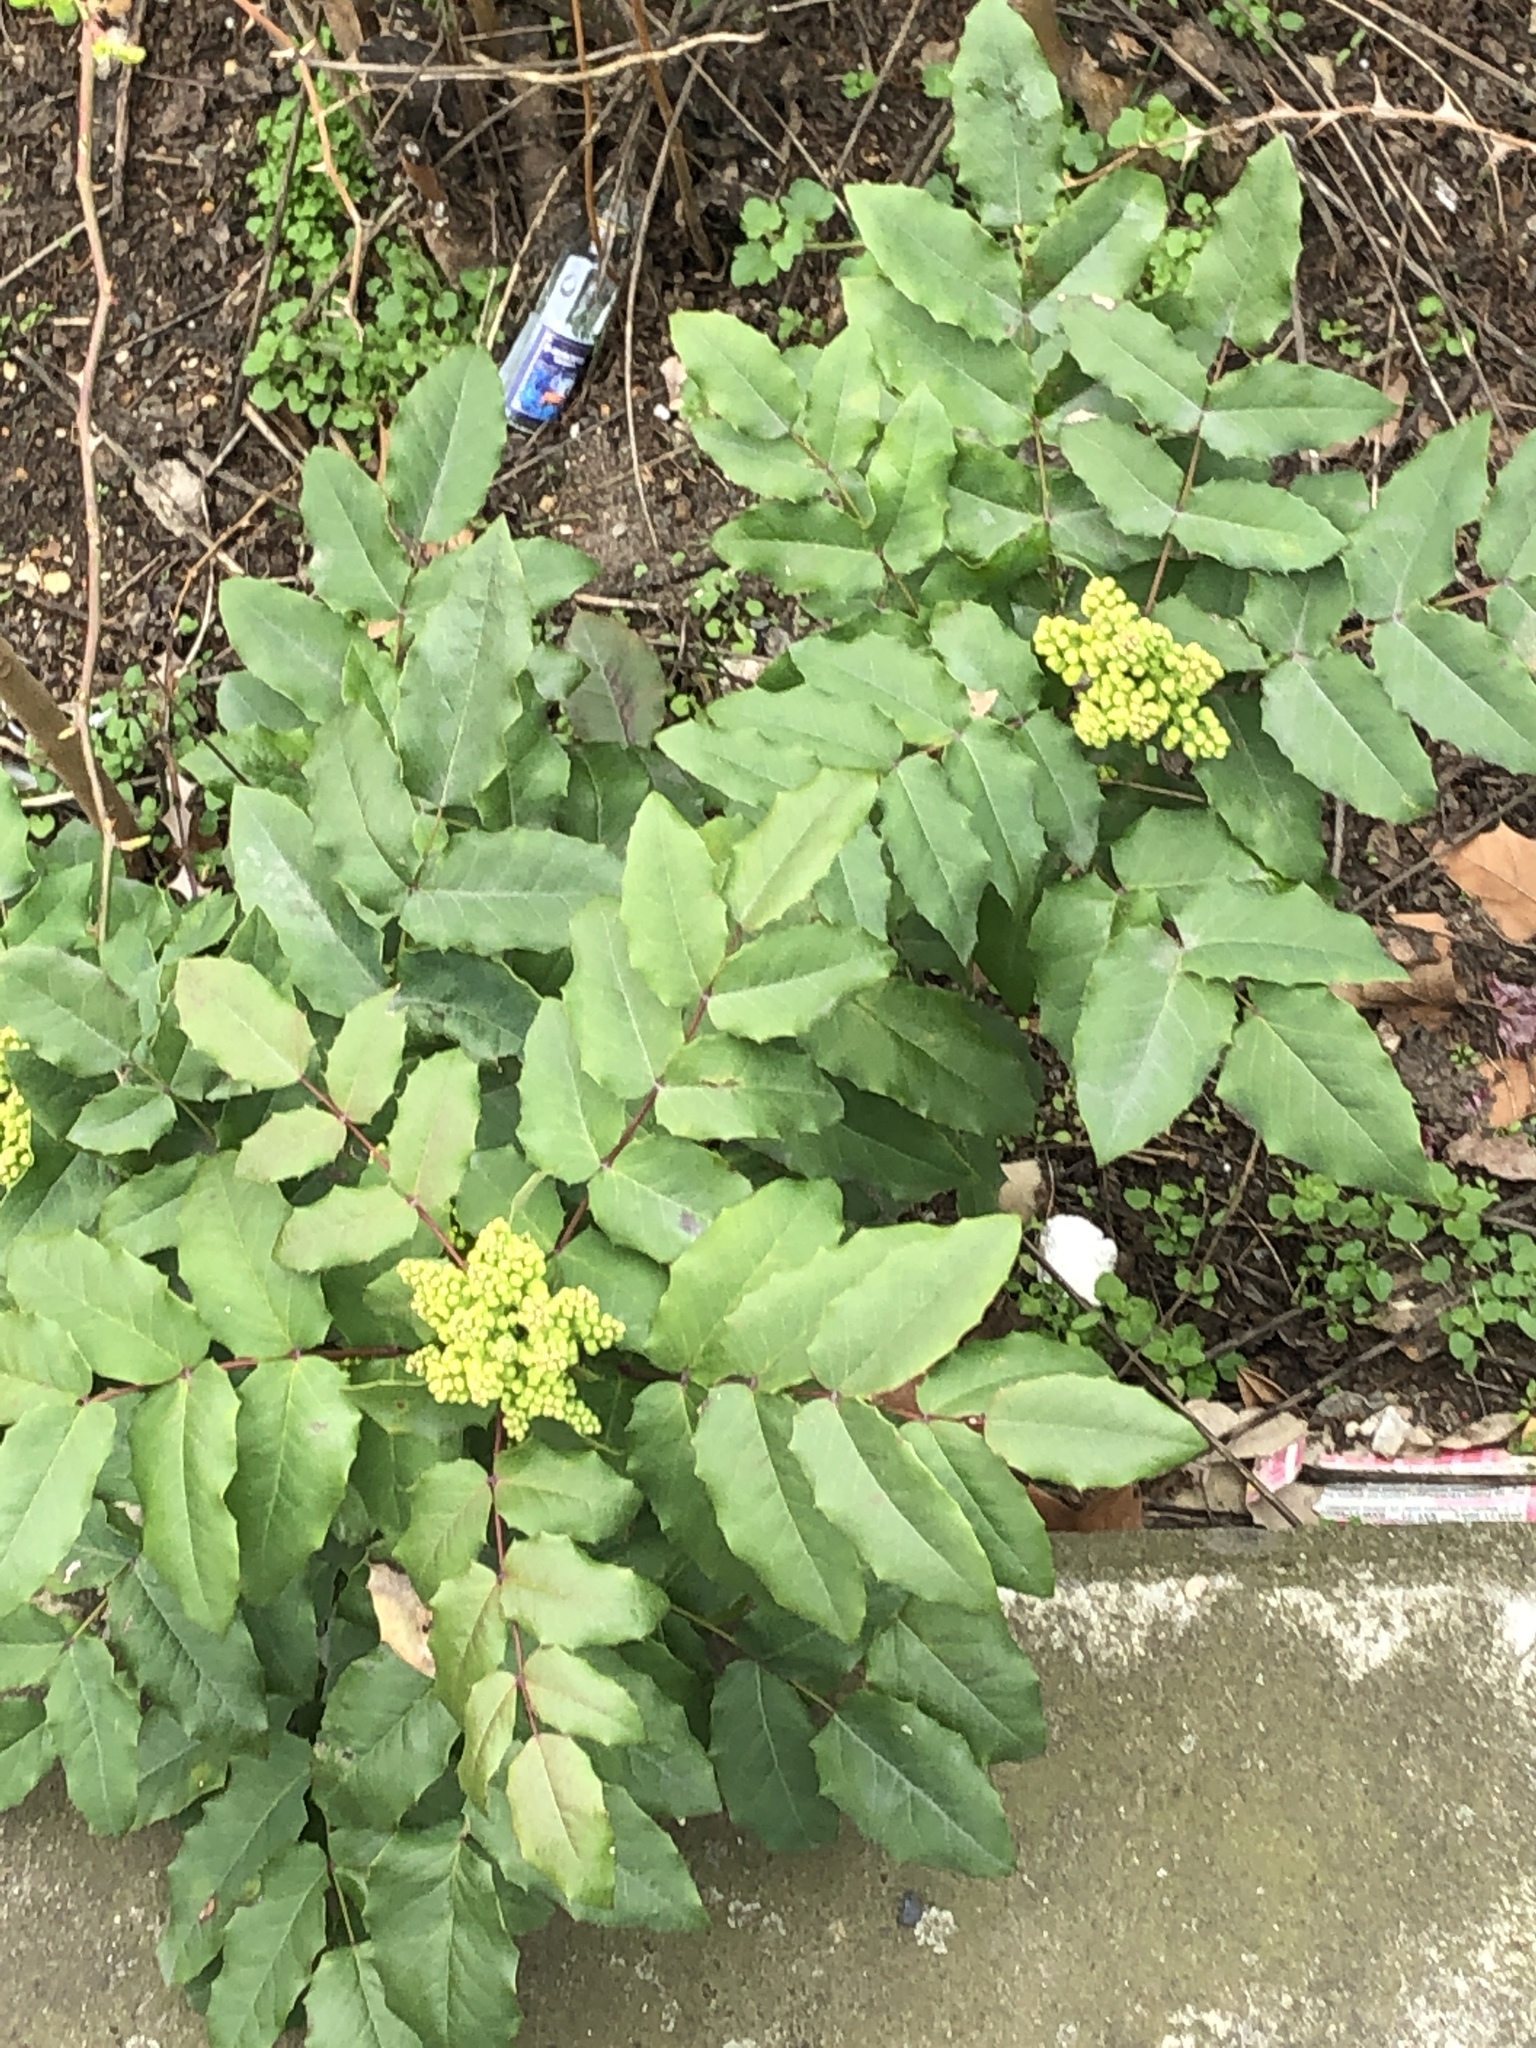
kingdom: Plantae
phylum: Tracheophyta
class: Magnoliopsida
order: Ranunculales
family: Berberidaceae
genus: Mahonia
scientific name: Mahonia aquifolium
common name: Oregon-grape
